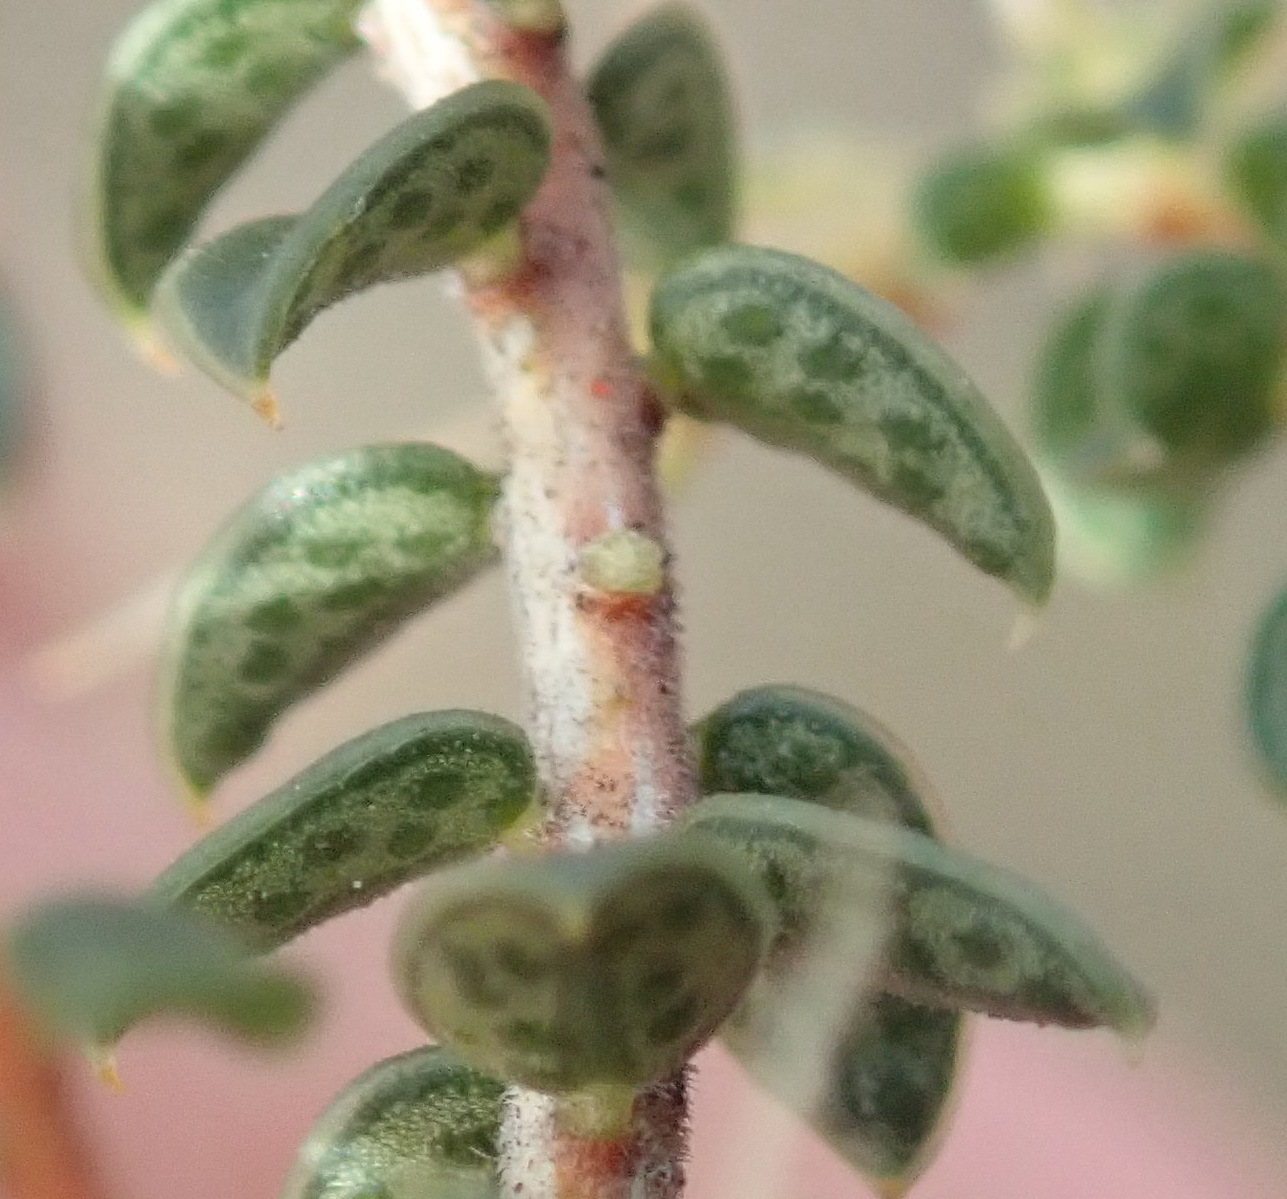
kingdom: Plantae
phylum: Tracheophyta
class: Magnoliopsida
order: Sapindales
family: Rutaceae
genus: Agathosma
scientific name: Agathosma recurvifolia
